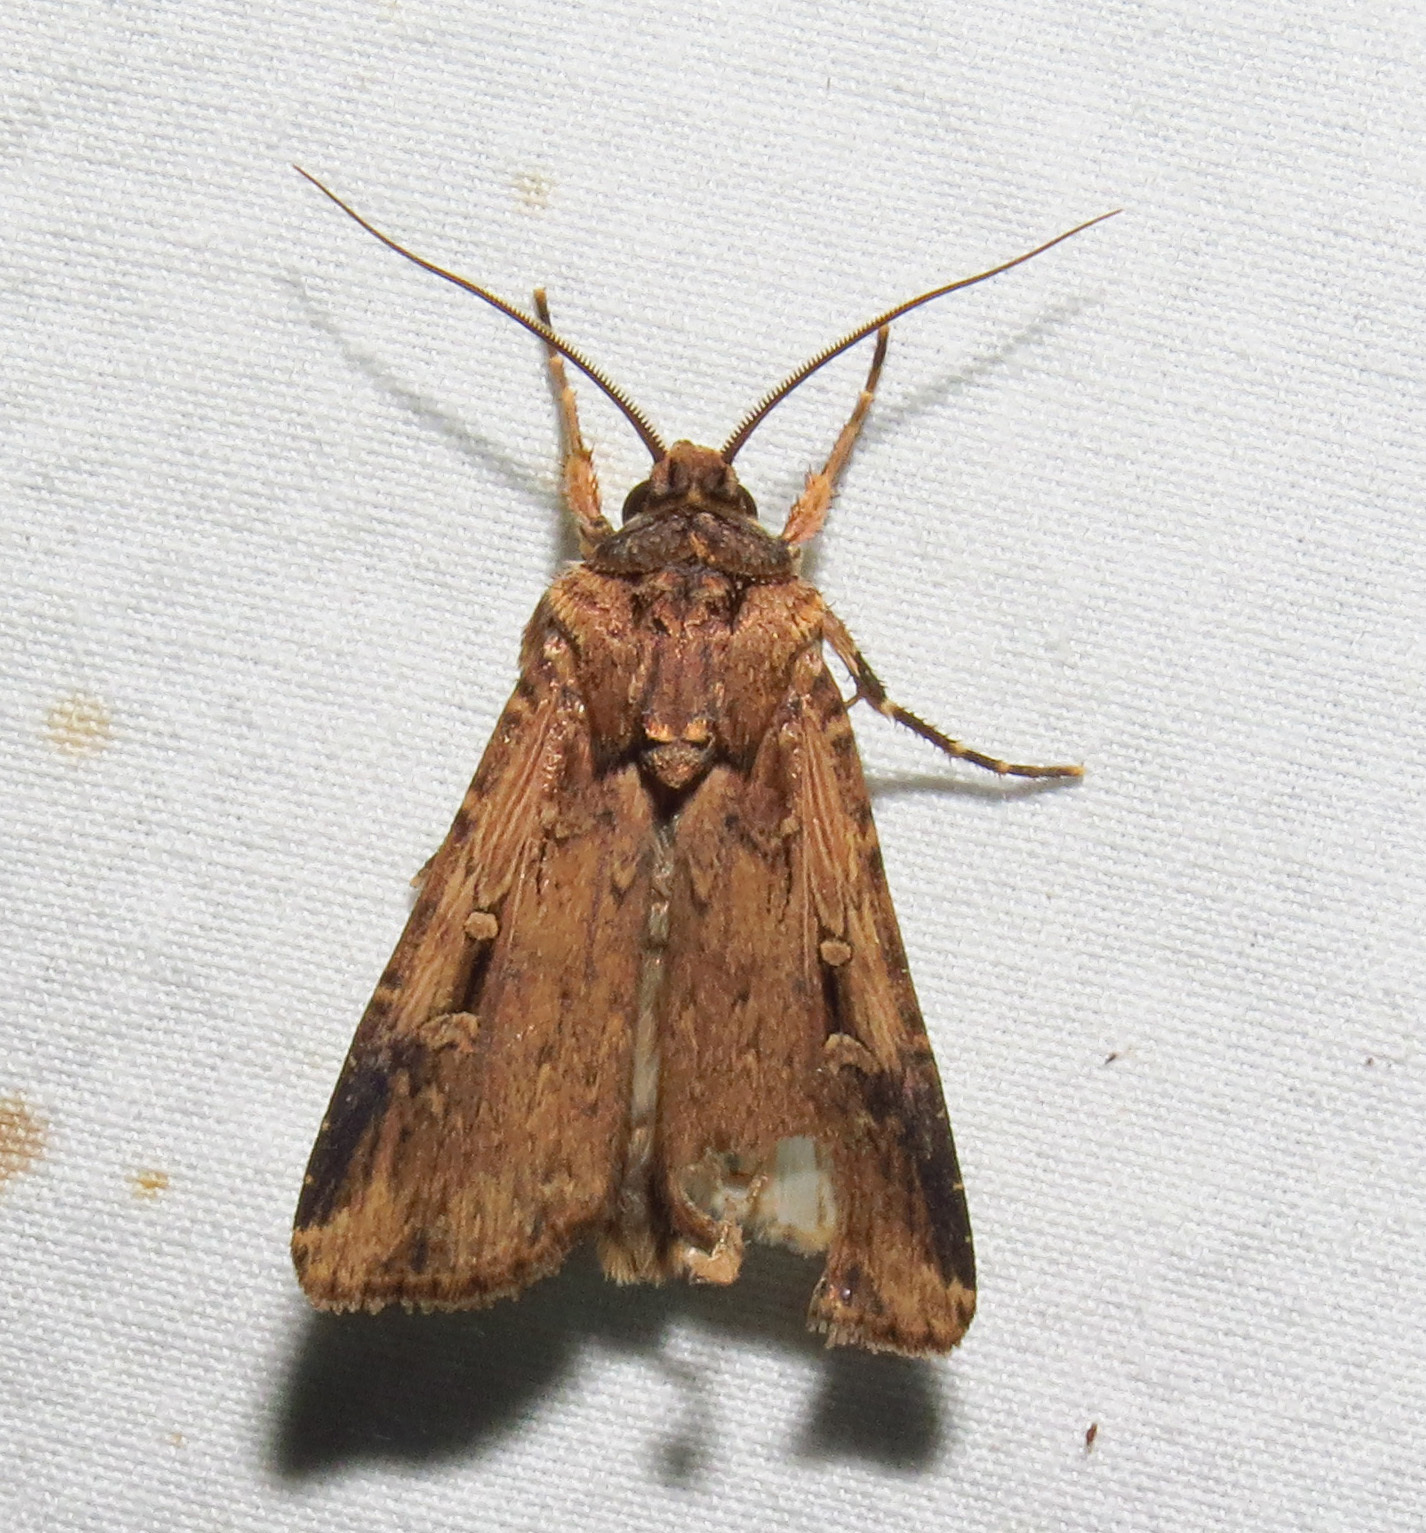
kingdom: Animalia
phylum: Arthropoda
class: Insecta
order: Lepidoptera
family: Noctuidae
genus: Feltia
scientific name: Feltia subterranea
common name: Granulate cutworm
